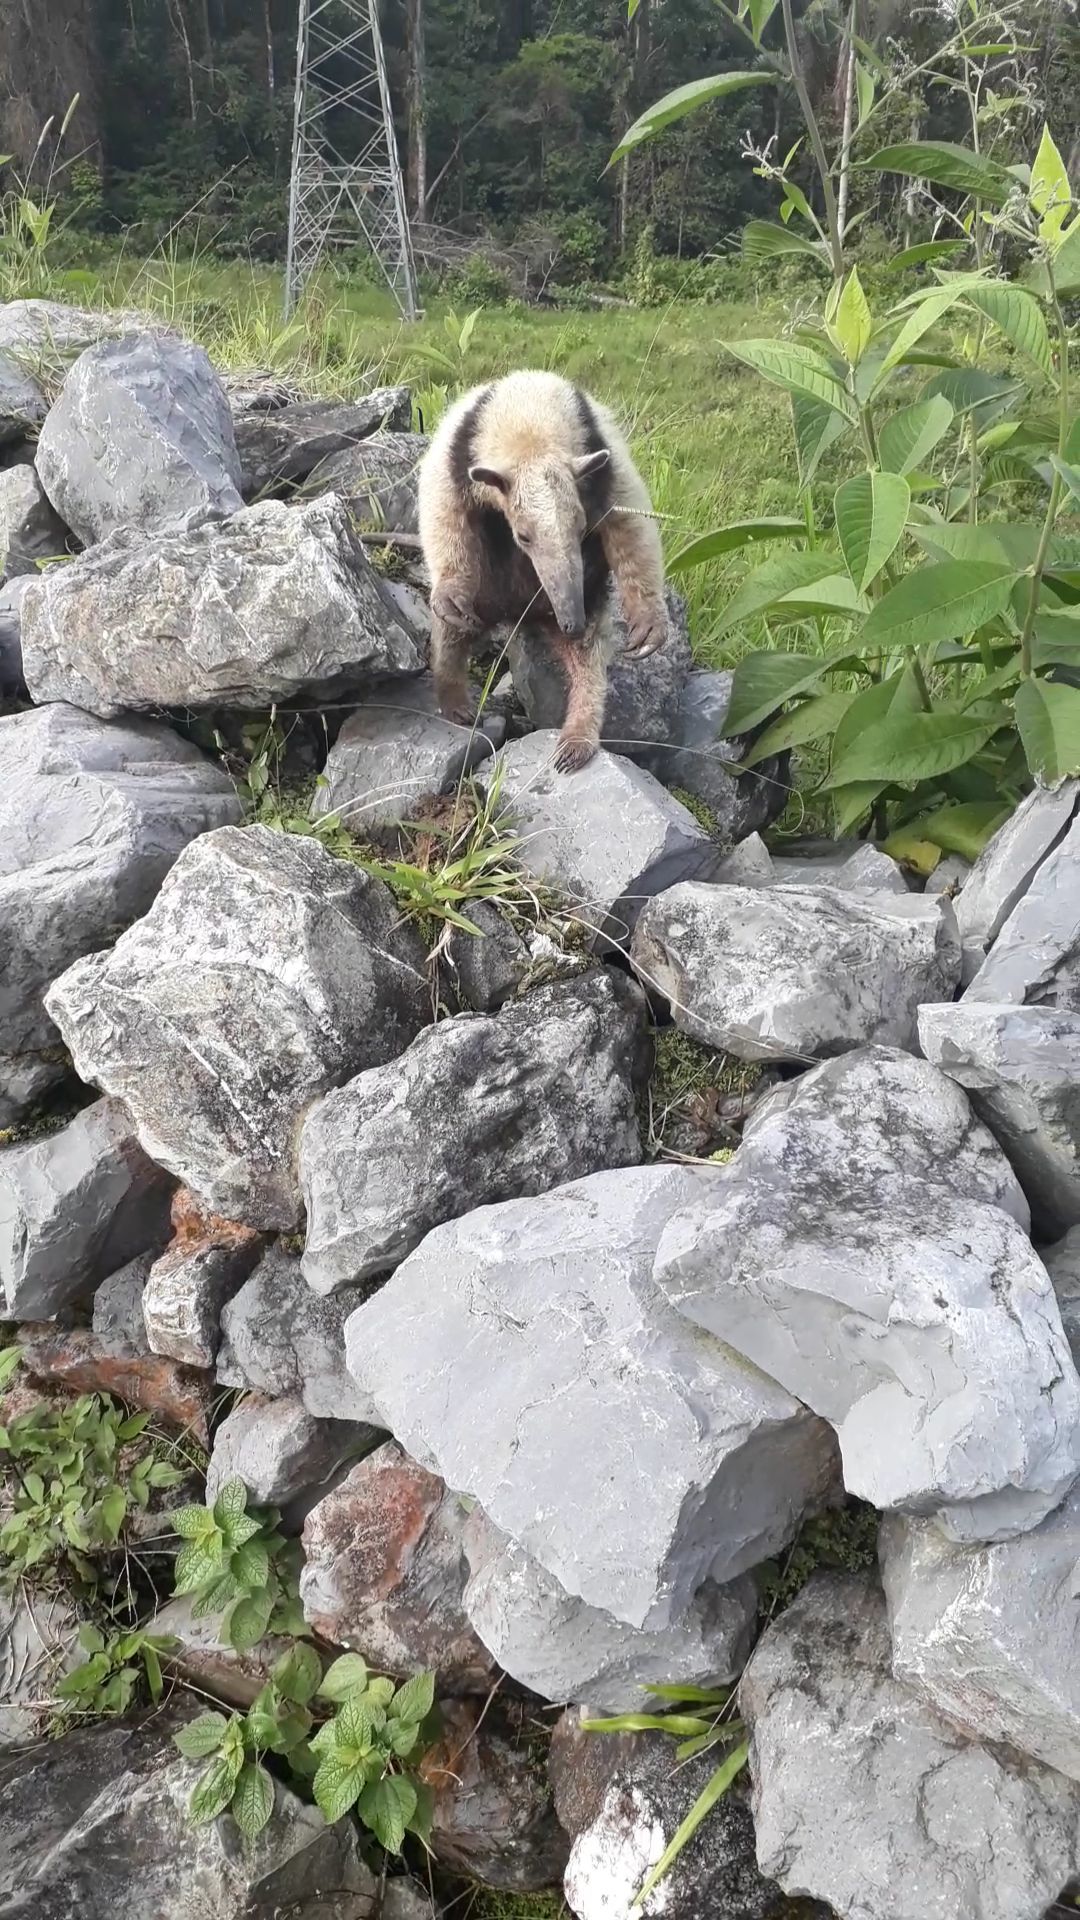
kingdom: Animalia
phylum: Chordata
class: Mammalia
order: Pilosa
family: Myrmecophagidae
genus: Tamandua
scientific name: Tamandua mexicana
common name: Northern tamandua
